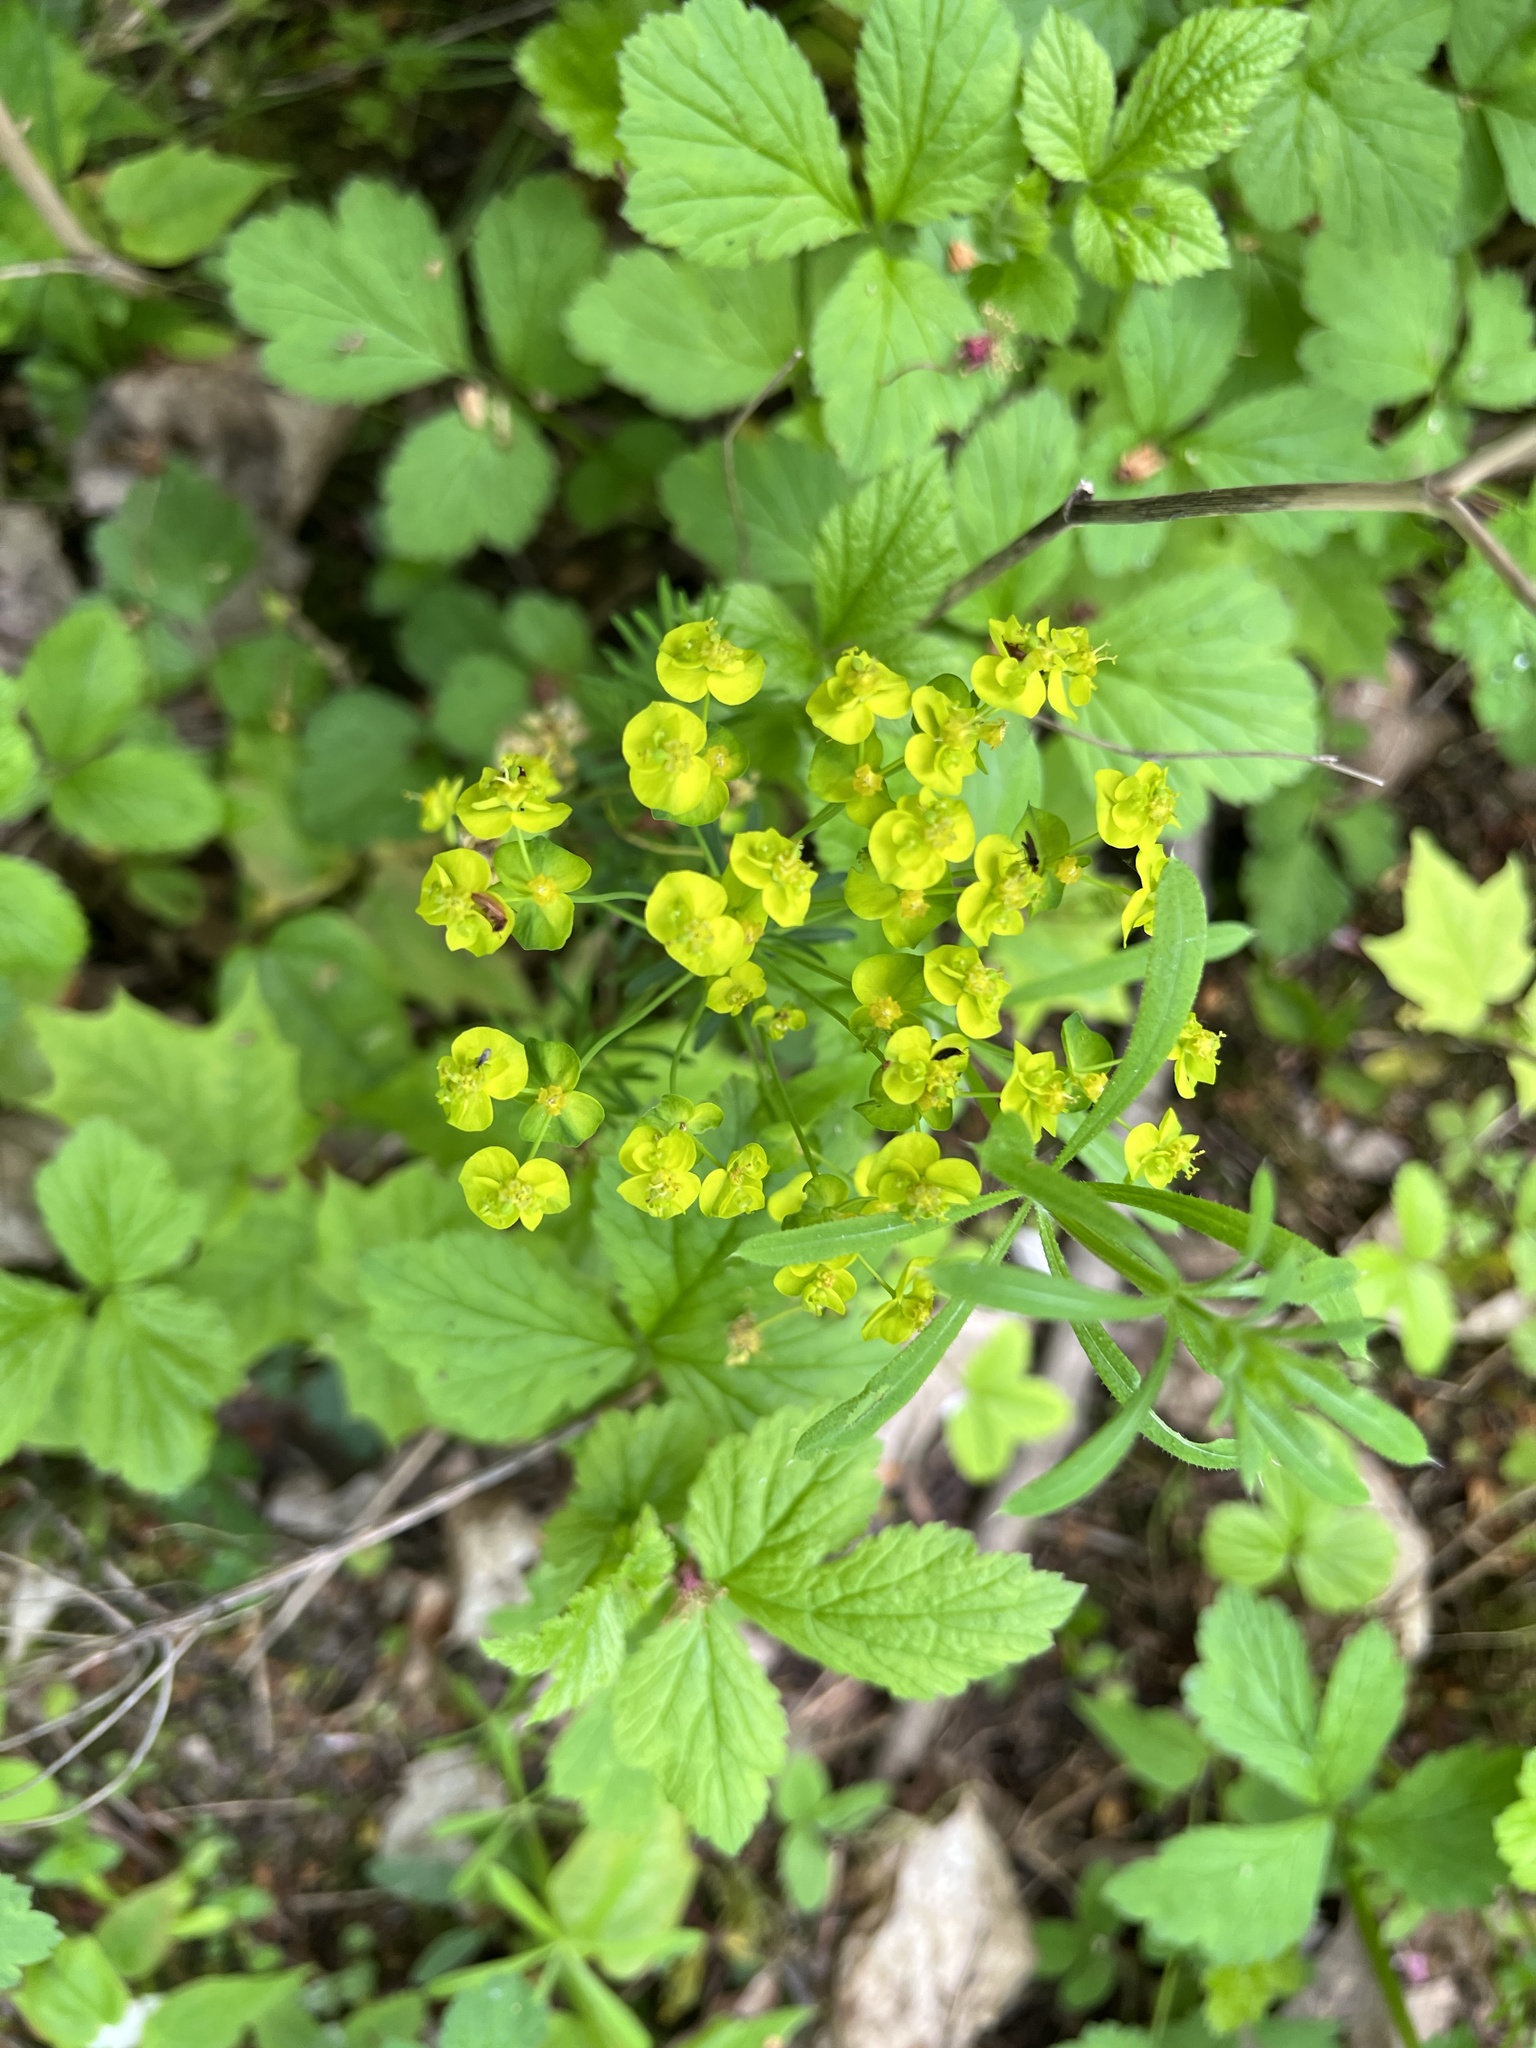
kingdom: Plantae
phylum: Tracheophyta
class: Magnoliopsida
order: Malpighiales
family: Euphorbiaceae
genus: Euphorbia
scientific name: Euphorbia cyparissias
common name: Cypress spurge
